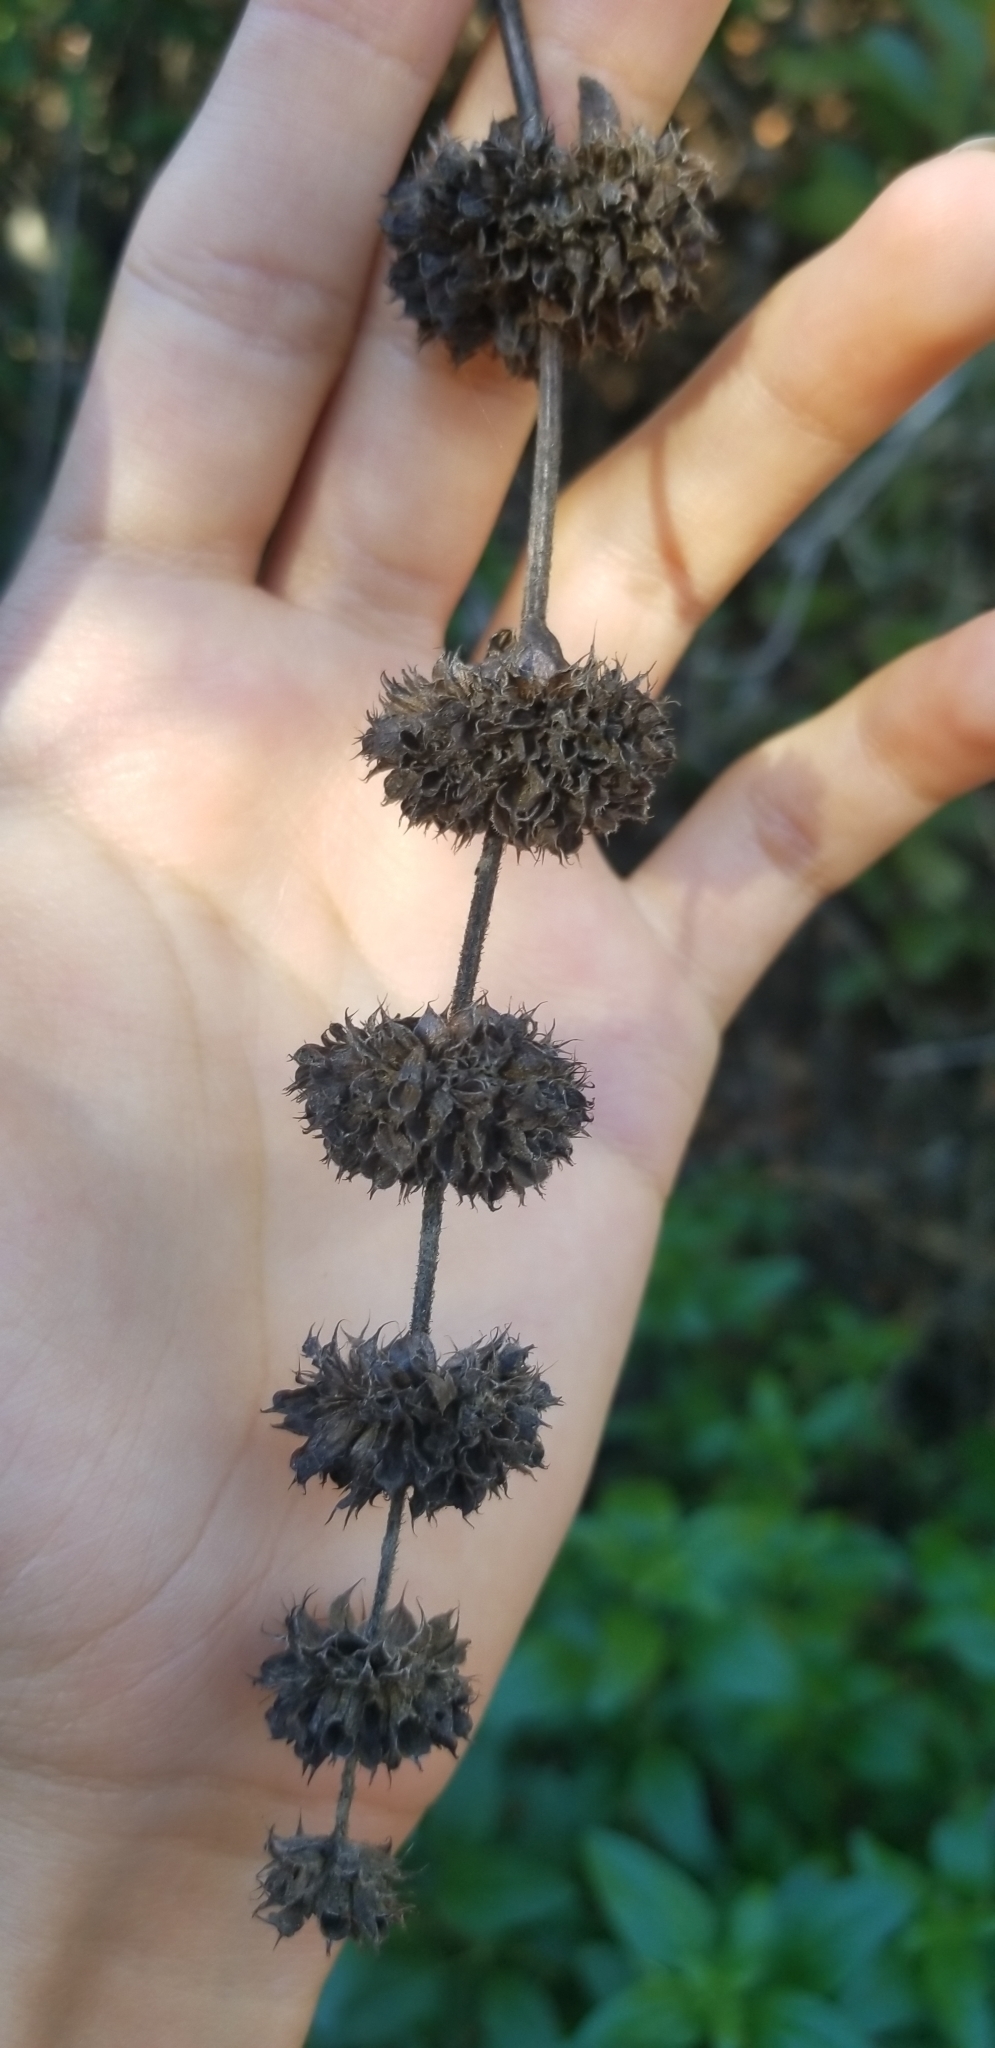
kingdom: Plantae
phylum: Tracheophyta
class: Magnoliopsida
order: Lamiales
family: Lamiaceae
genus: Salvia
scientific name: Salvia mellifera
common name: Black sage
